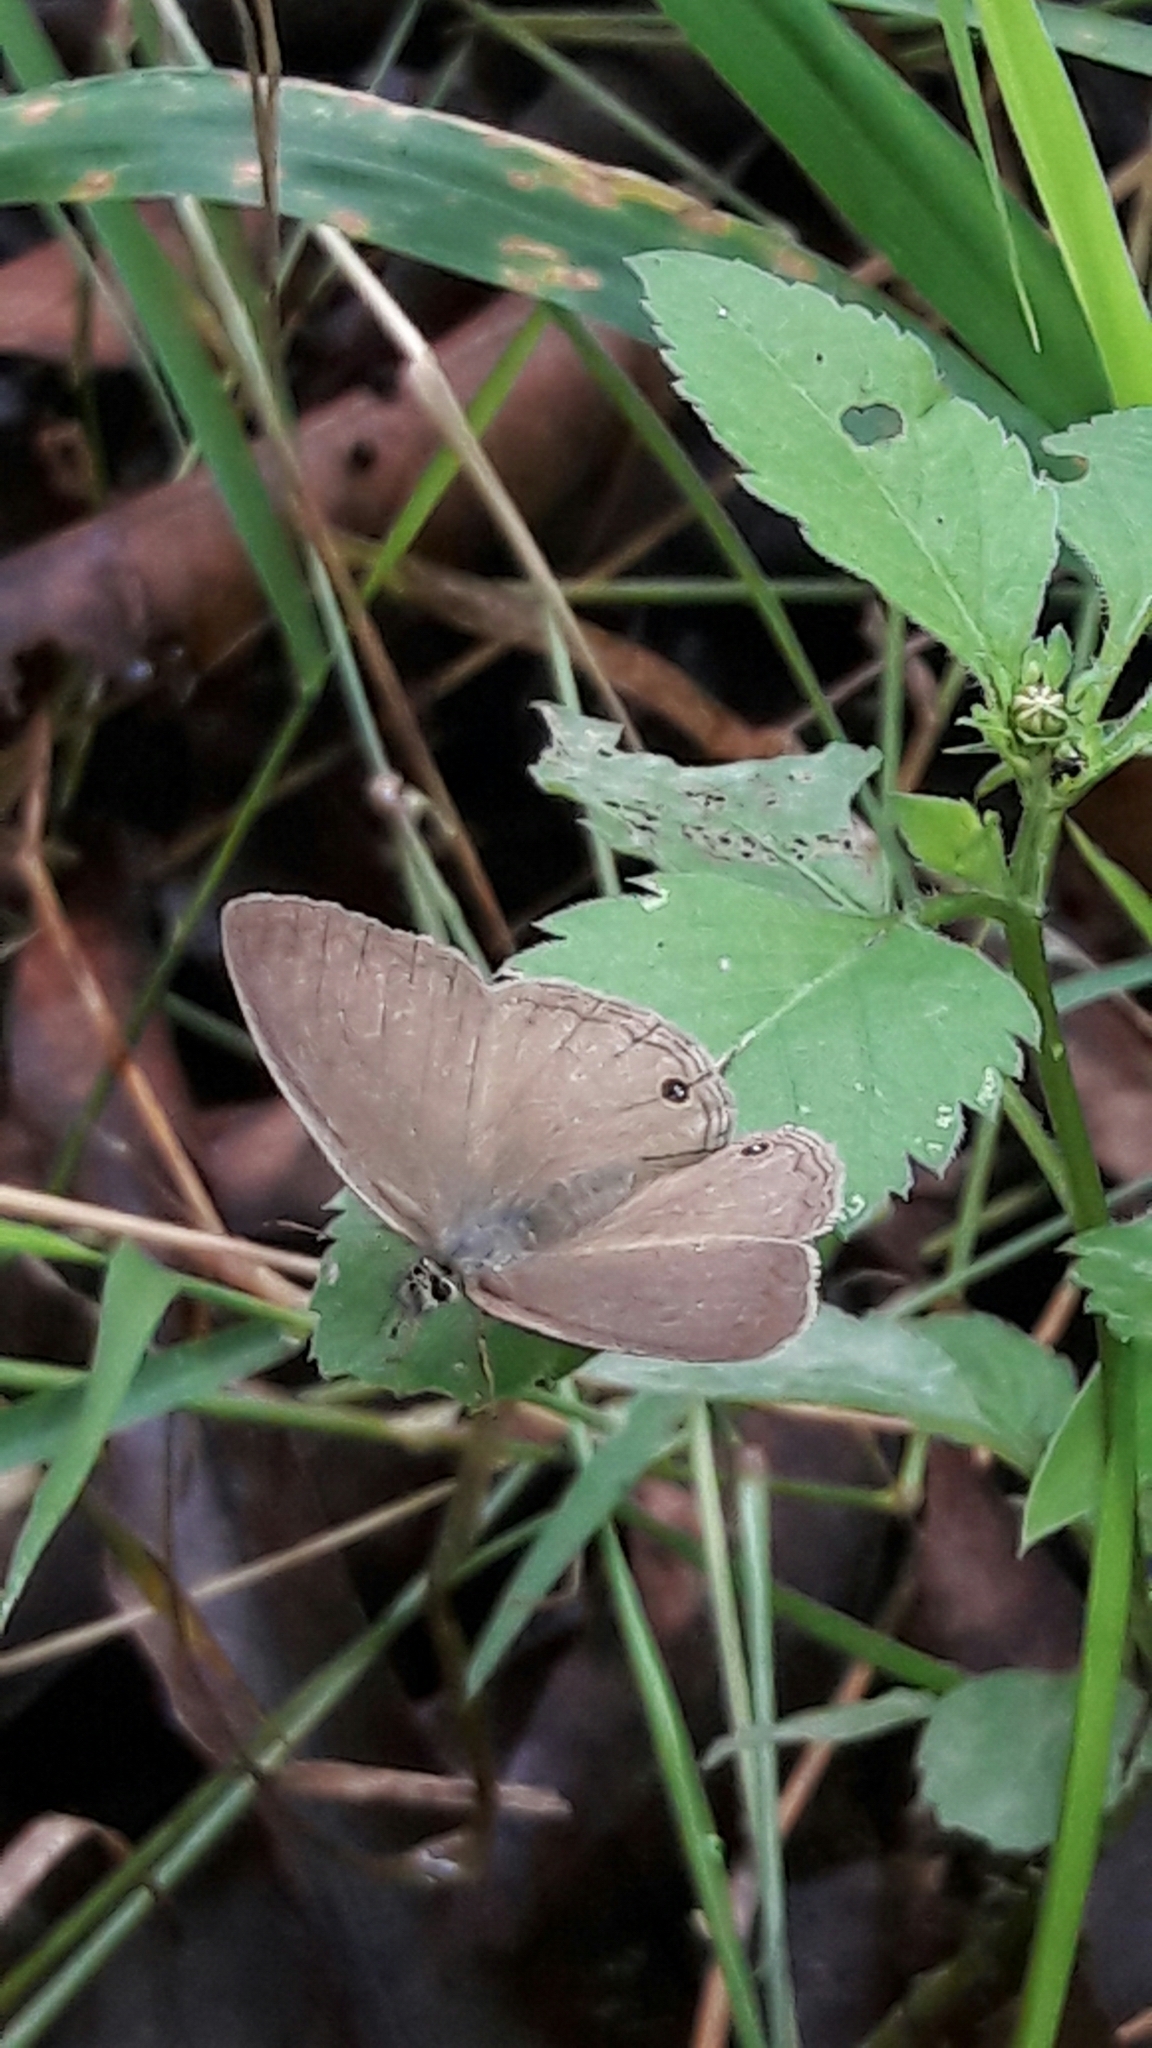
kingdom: Animalia
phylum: Arthropoda
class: Insecta
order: Lepidoptera
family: Nymphalidae
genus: Euptychia
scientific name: Euptychia Cissia eous
